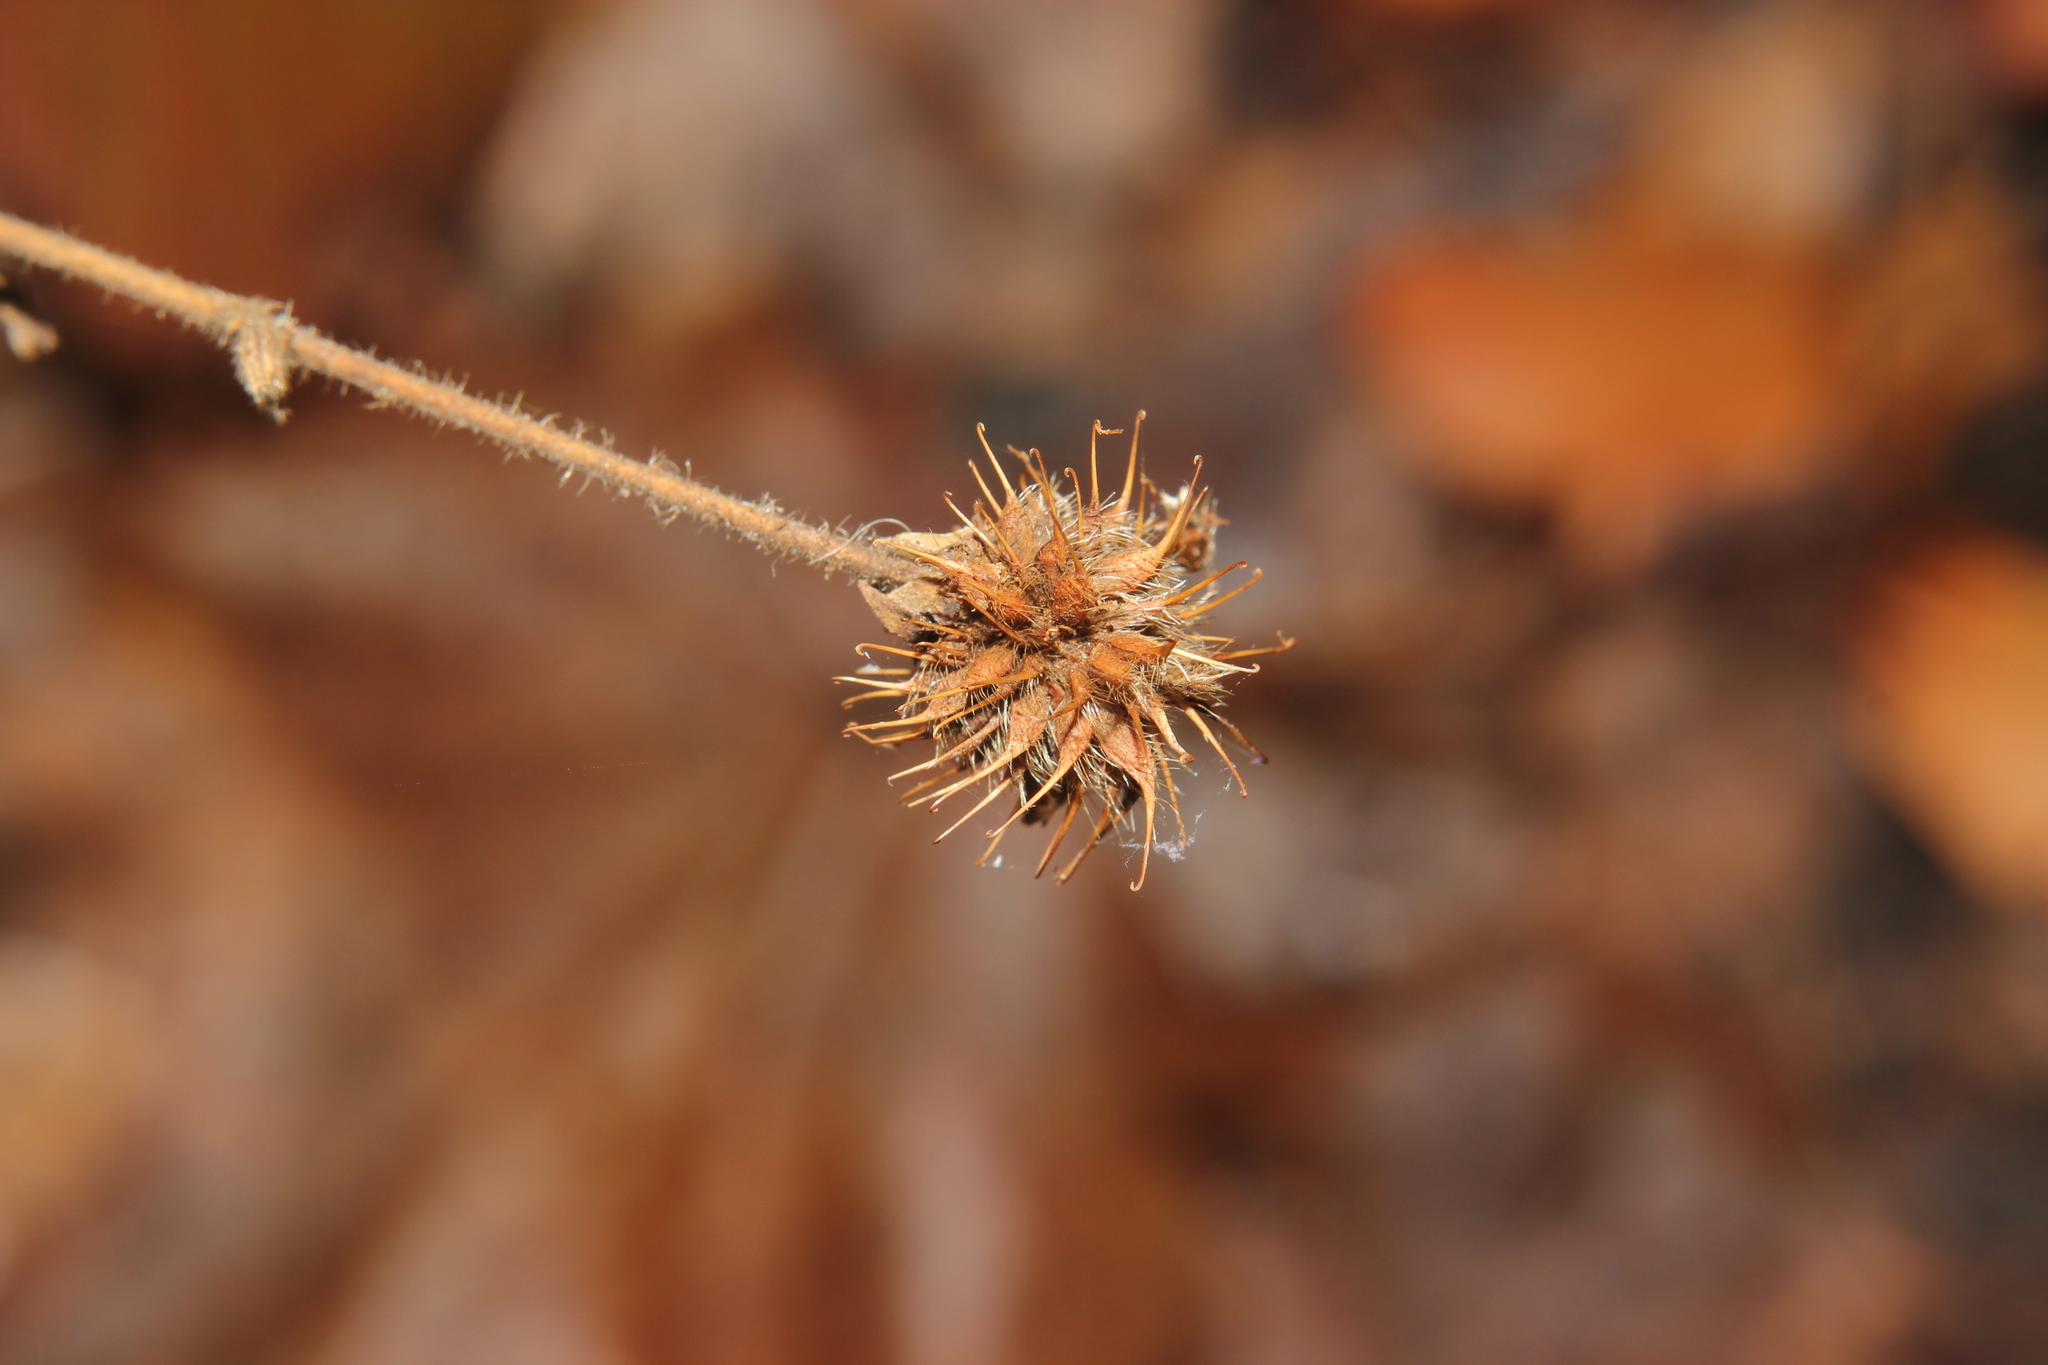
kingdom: Plantae
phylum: Tracheophyta
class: Magnoliopsida
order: Rosales
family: Rosaceae
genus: Geum
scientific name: Geum urbanum
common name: Wood avens
